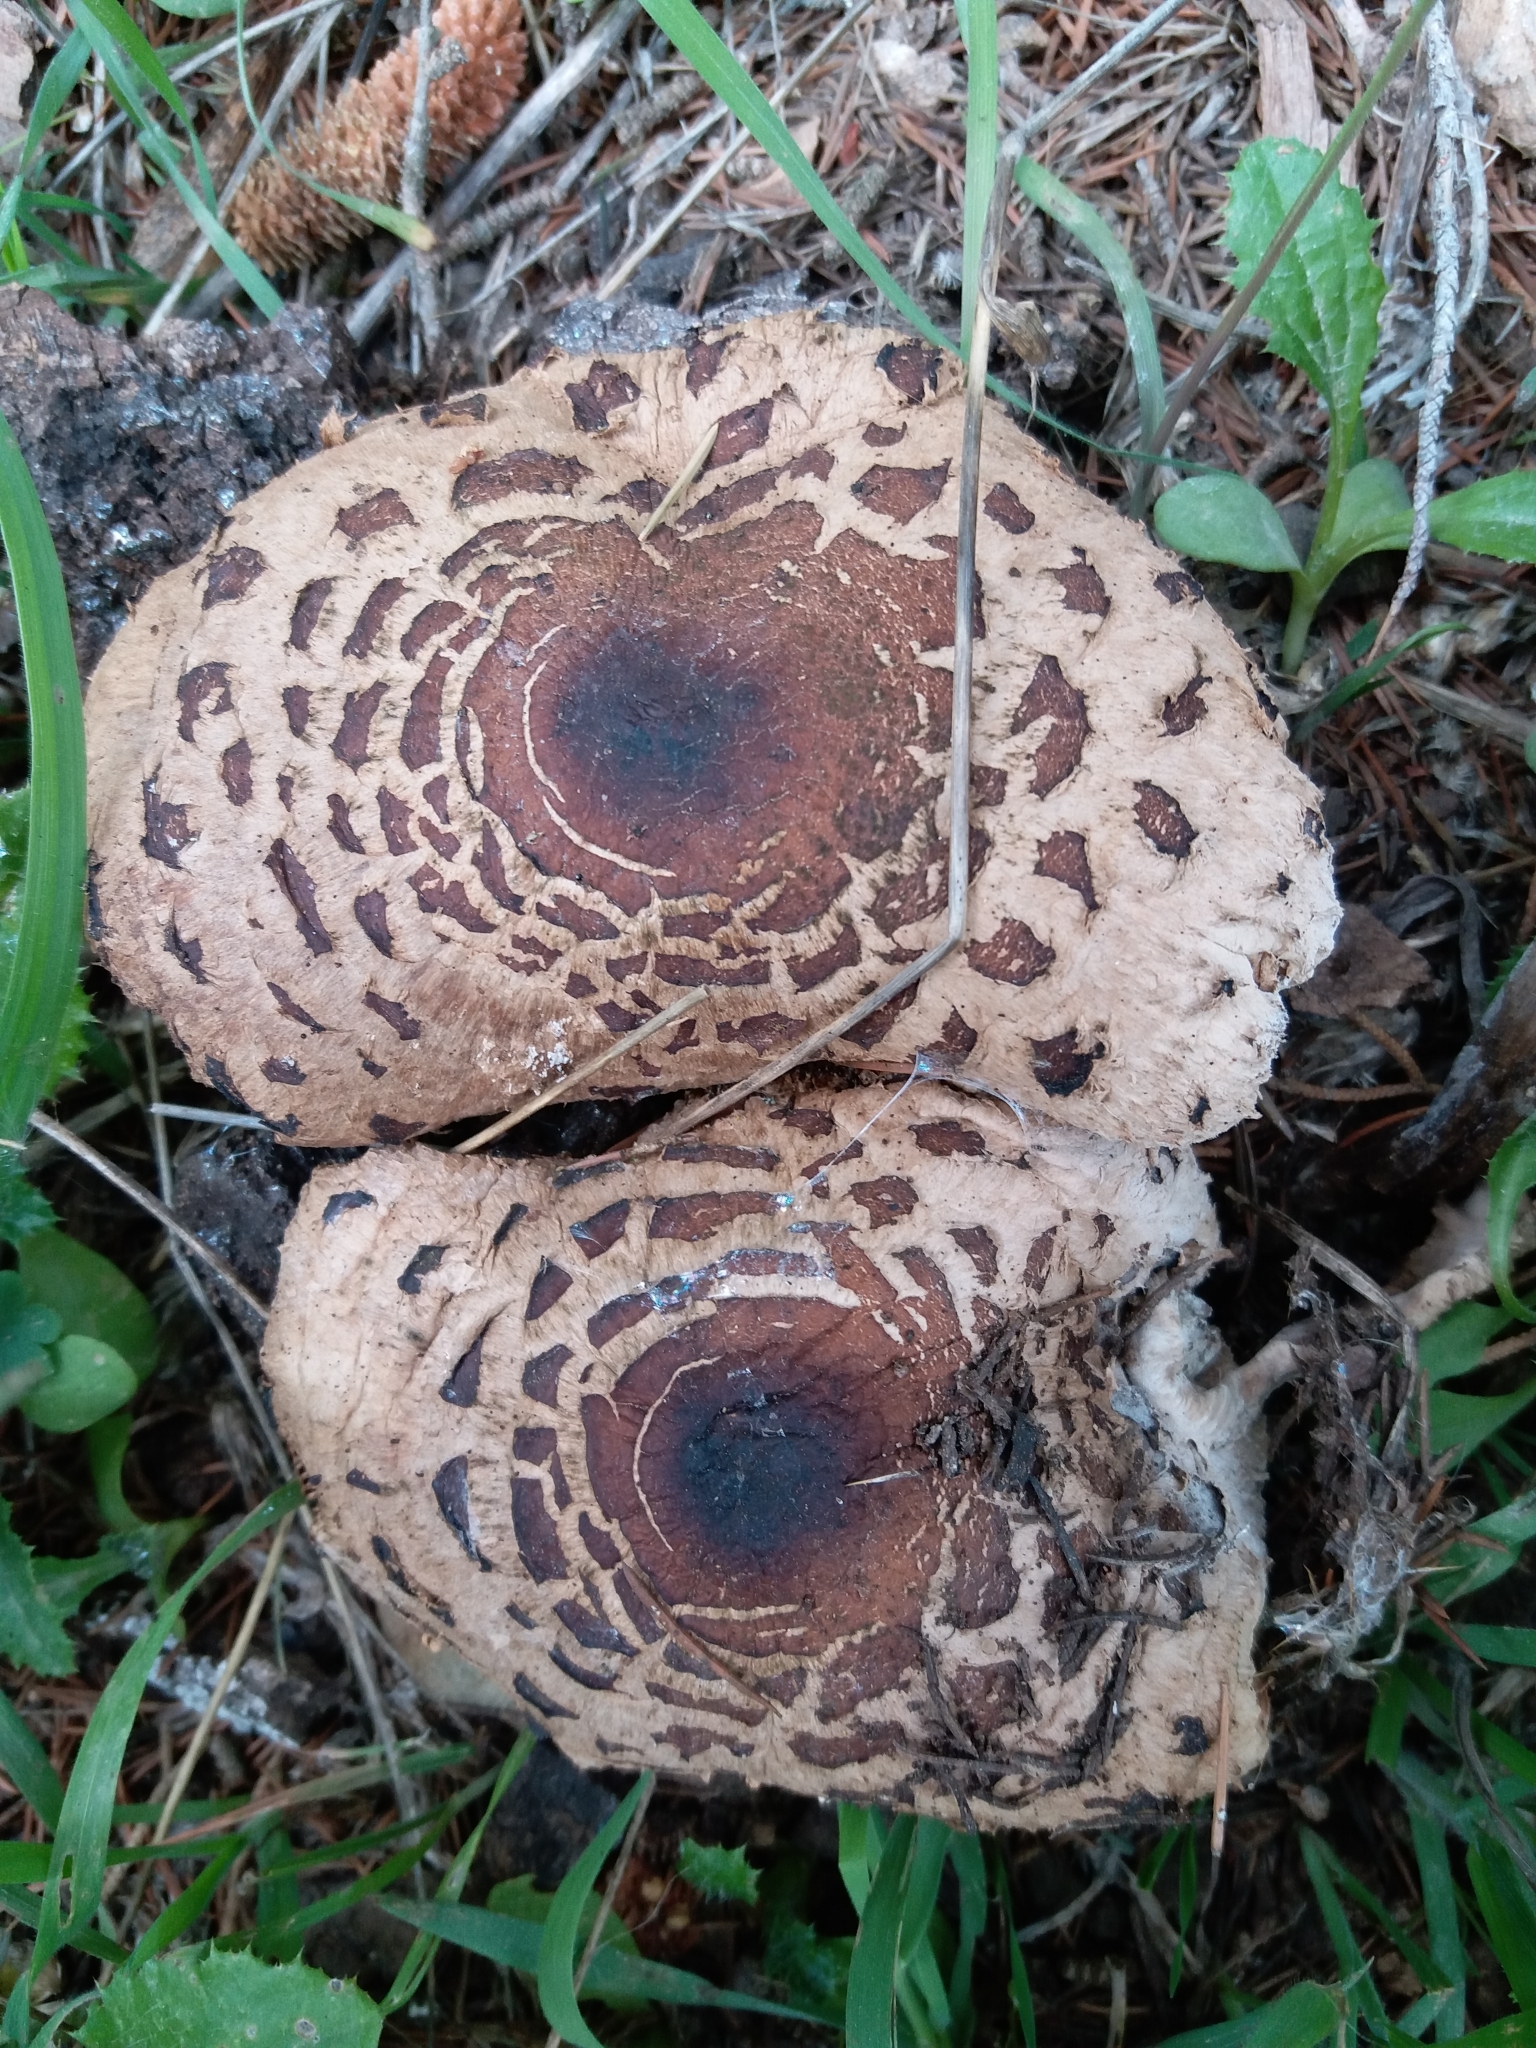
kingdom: Fungi
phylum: Basidiomycota
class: Agaricomycetes
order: Agaricales
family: Agaricaceae
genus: Chlorophyllum
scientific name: Chlorophyllum brunneum
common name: Brown parasol
